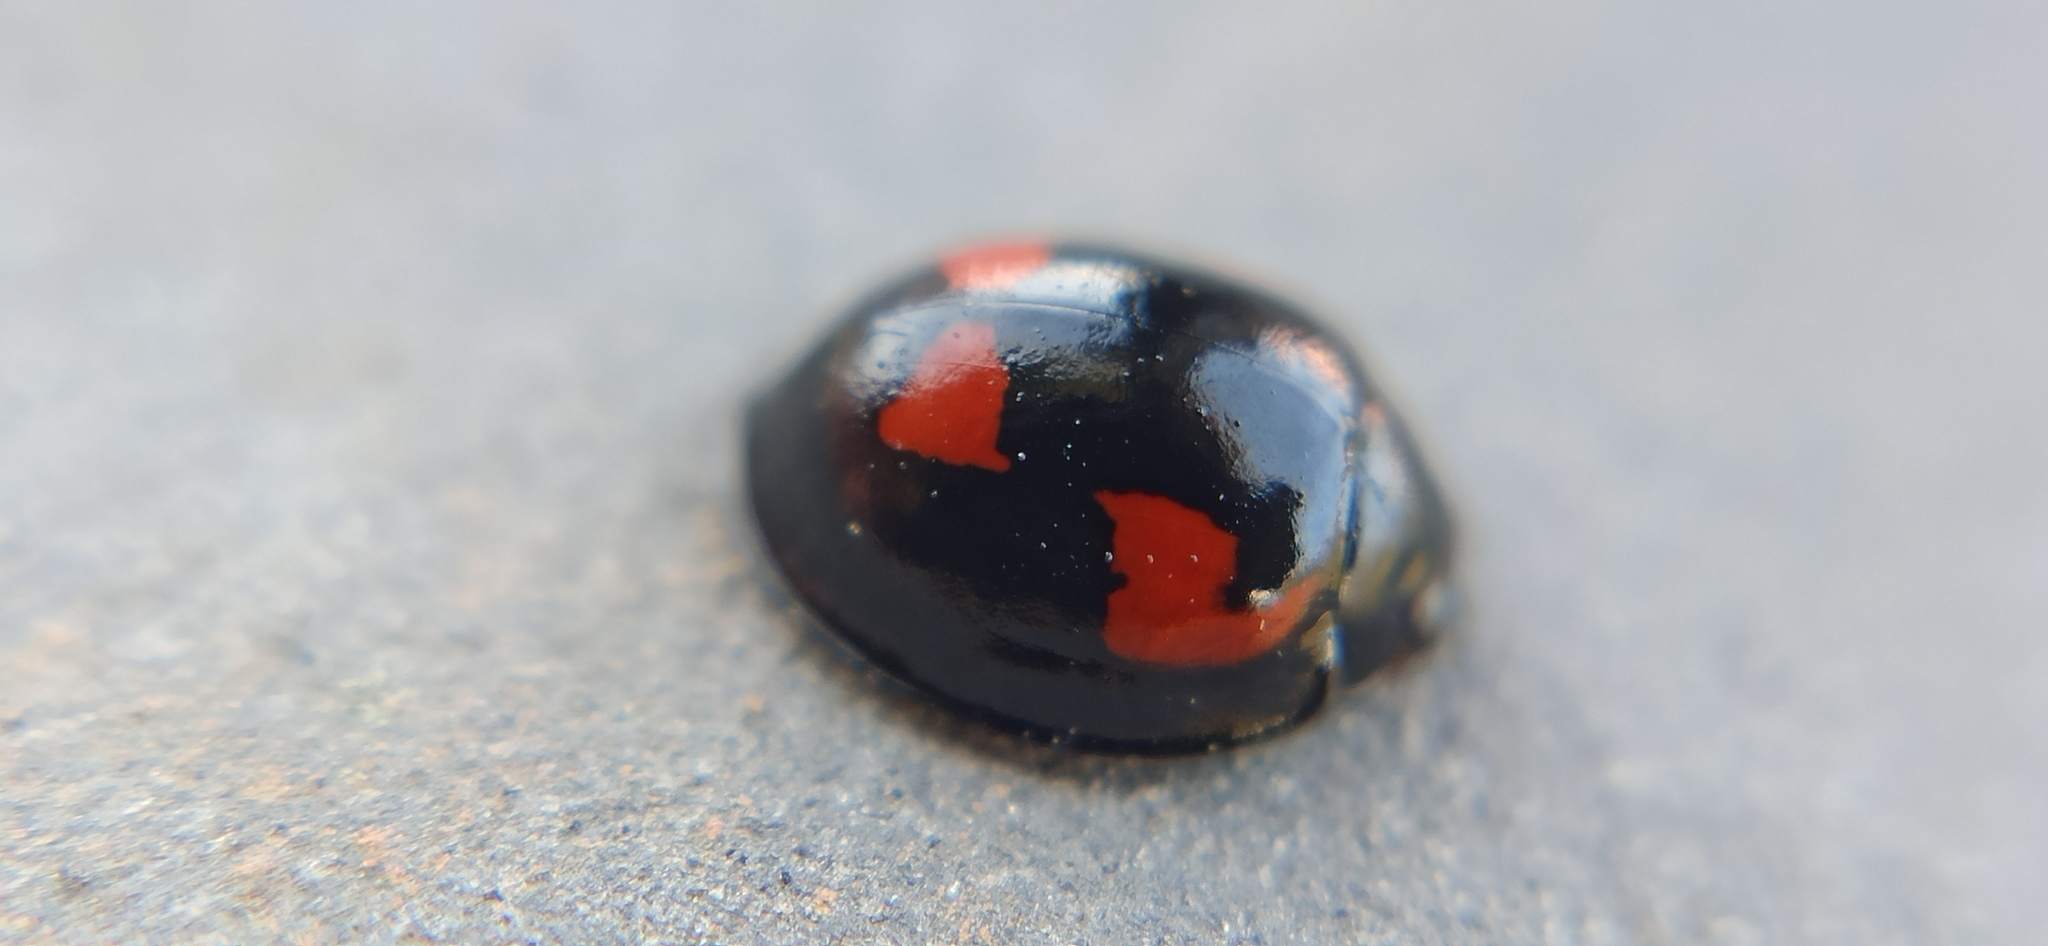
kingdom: Animalia
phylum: Arthropoda
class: Insecta
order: Coleoptera
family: Coccinellidae
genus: Brumus
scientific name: Brumus quadripustulatus
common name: Ladybird beetle
